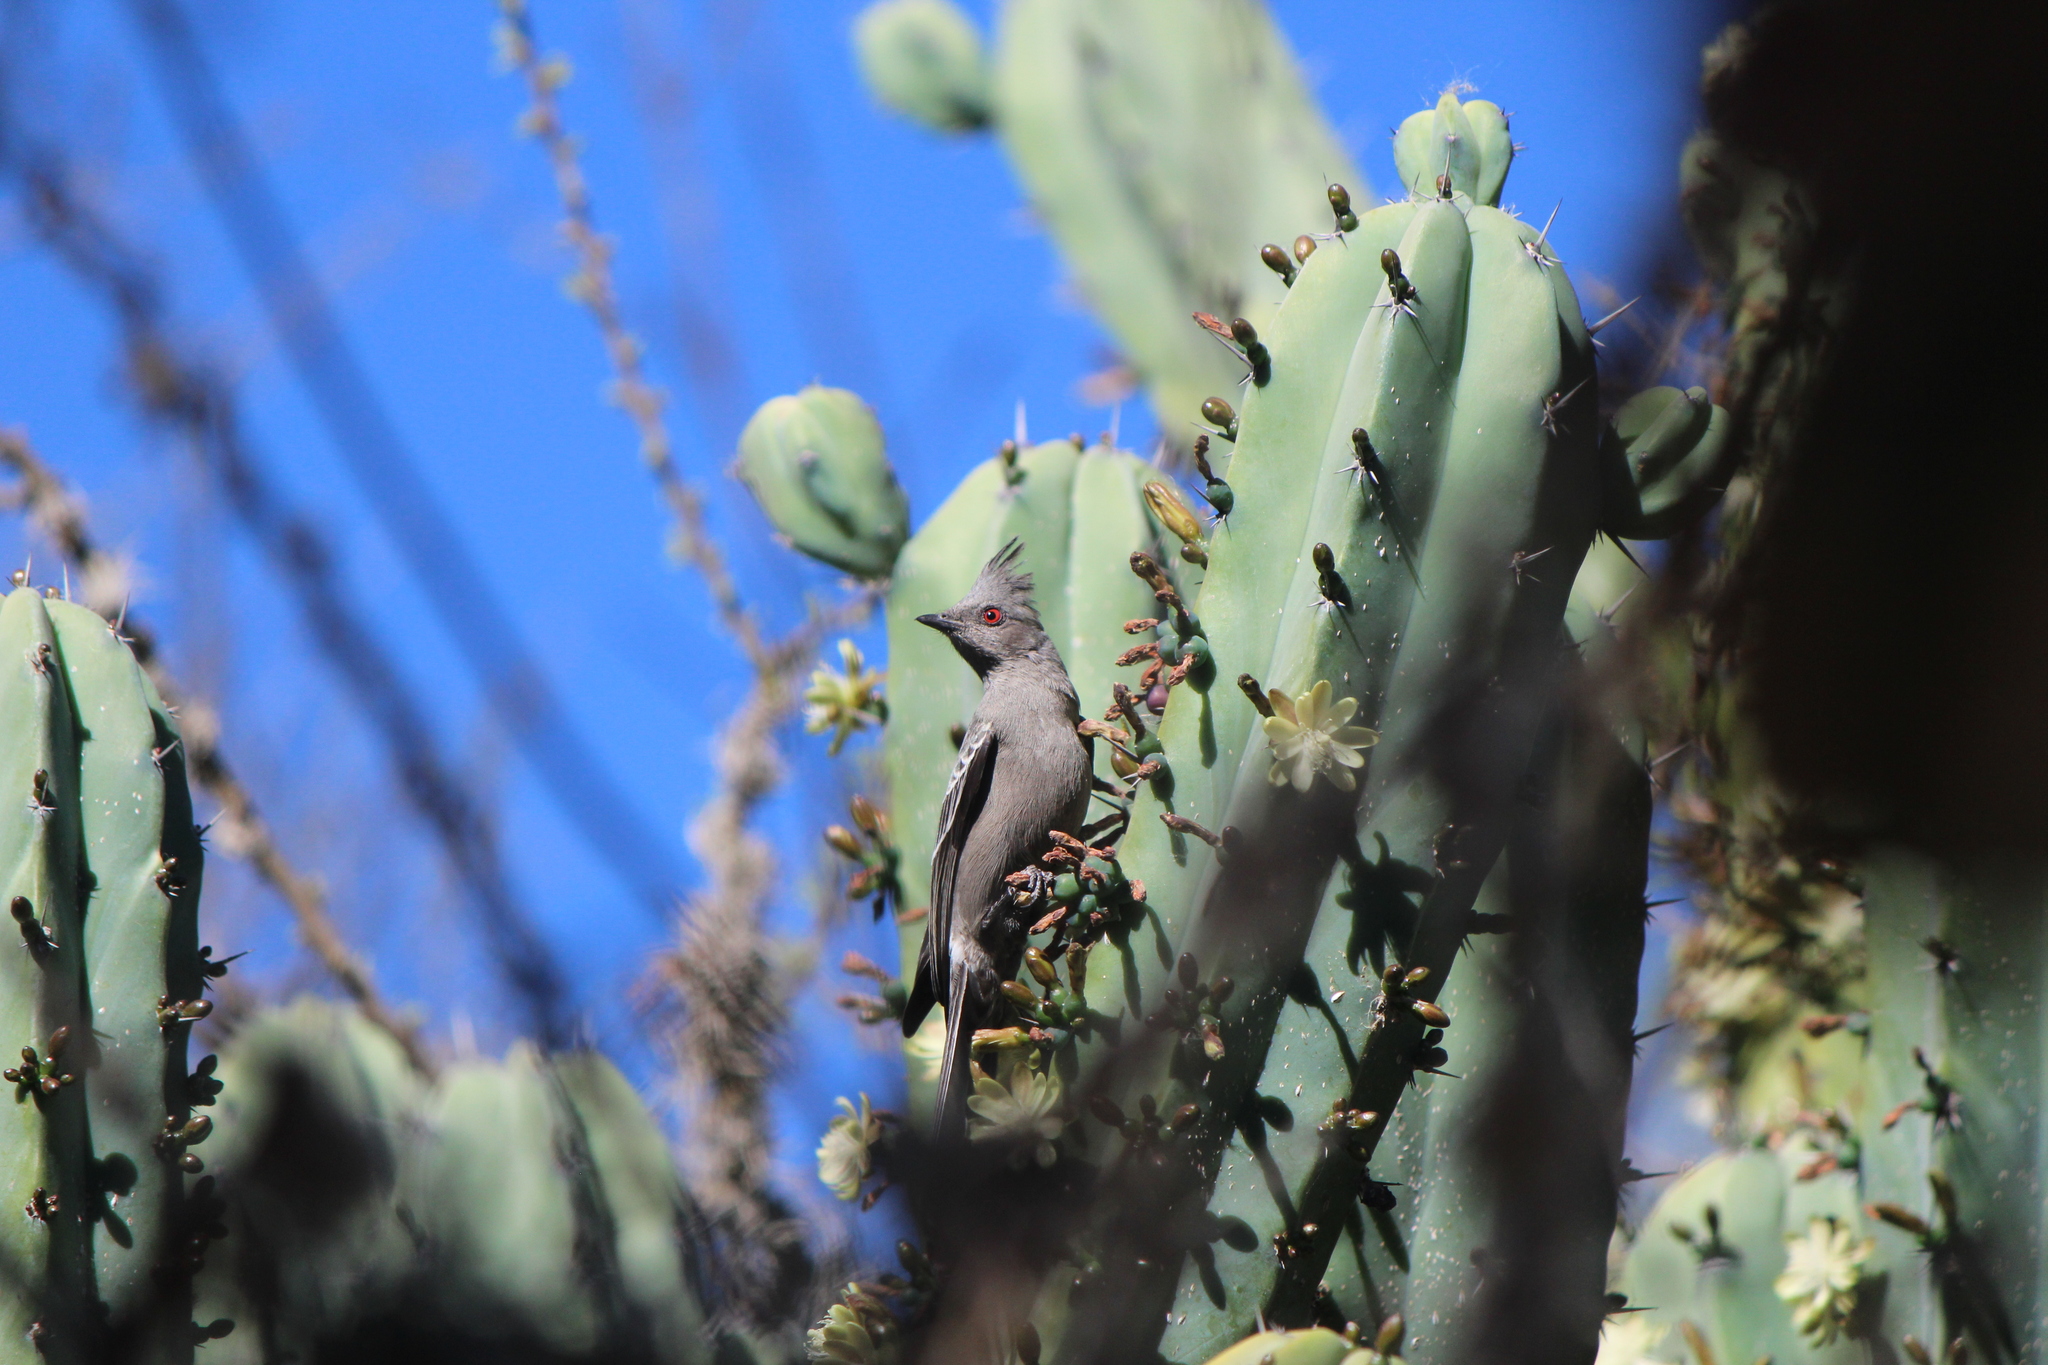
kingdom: Animalia
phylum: Chordata
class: Aves
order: Passeriformes
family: Ptilogonatidae
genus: Phainopepla
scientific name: Phainopepla nitens
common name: Phainopepla
